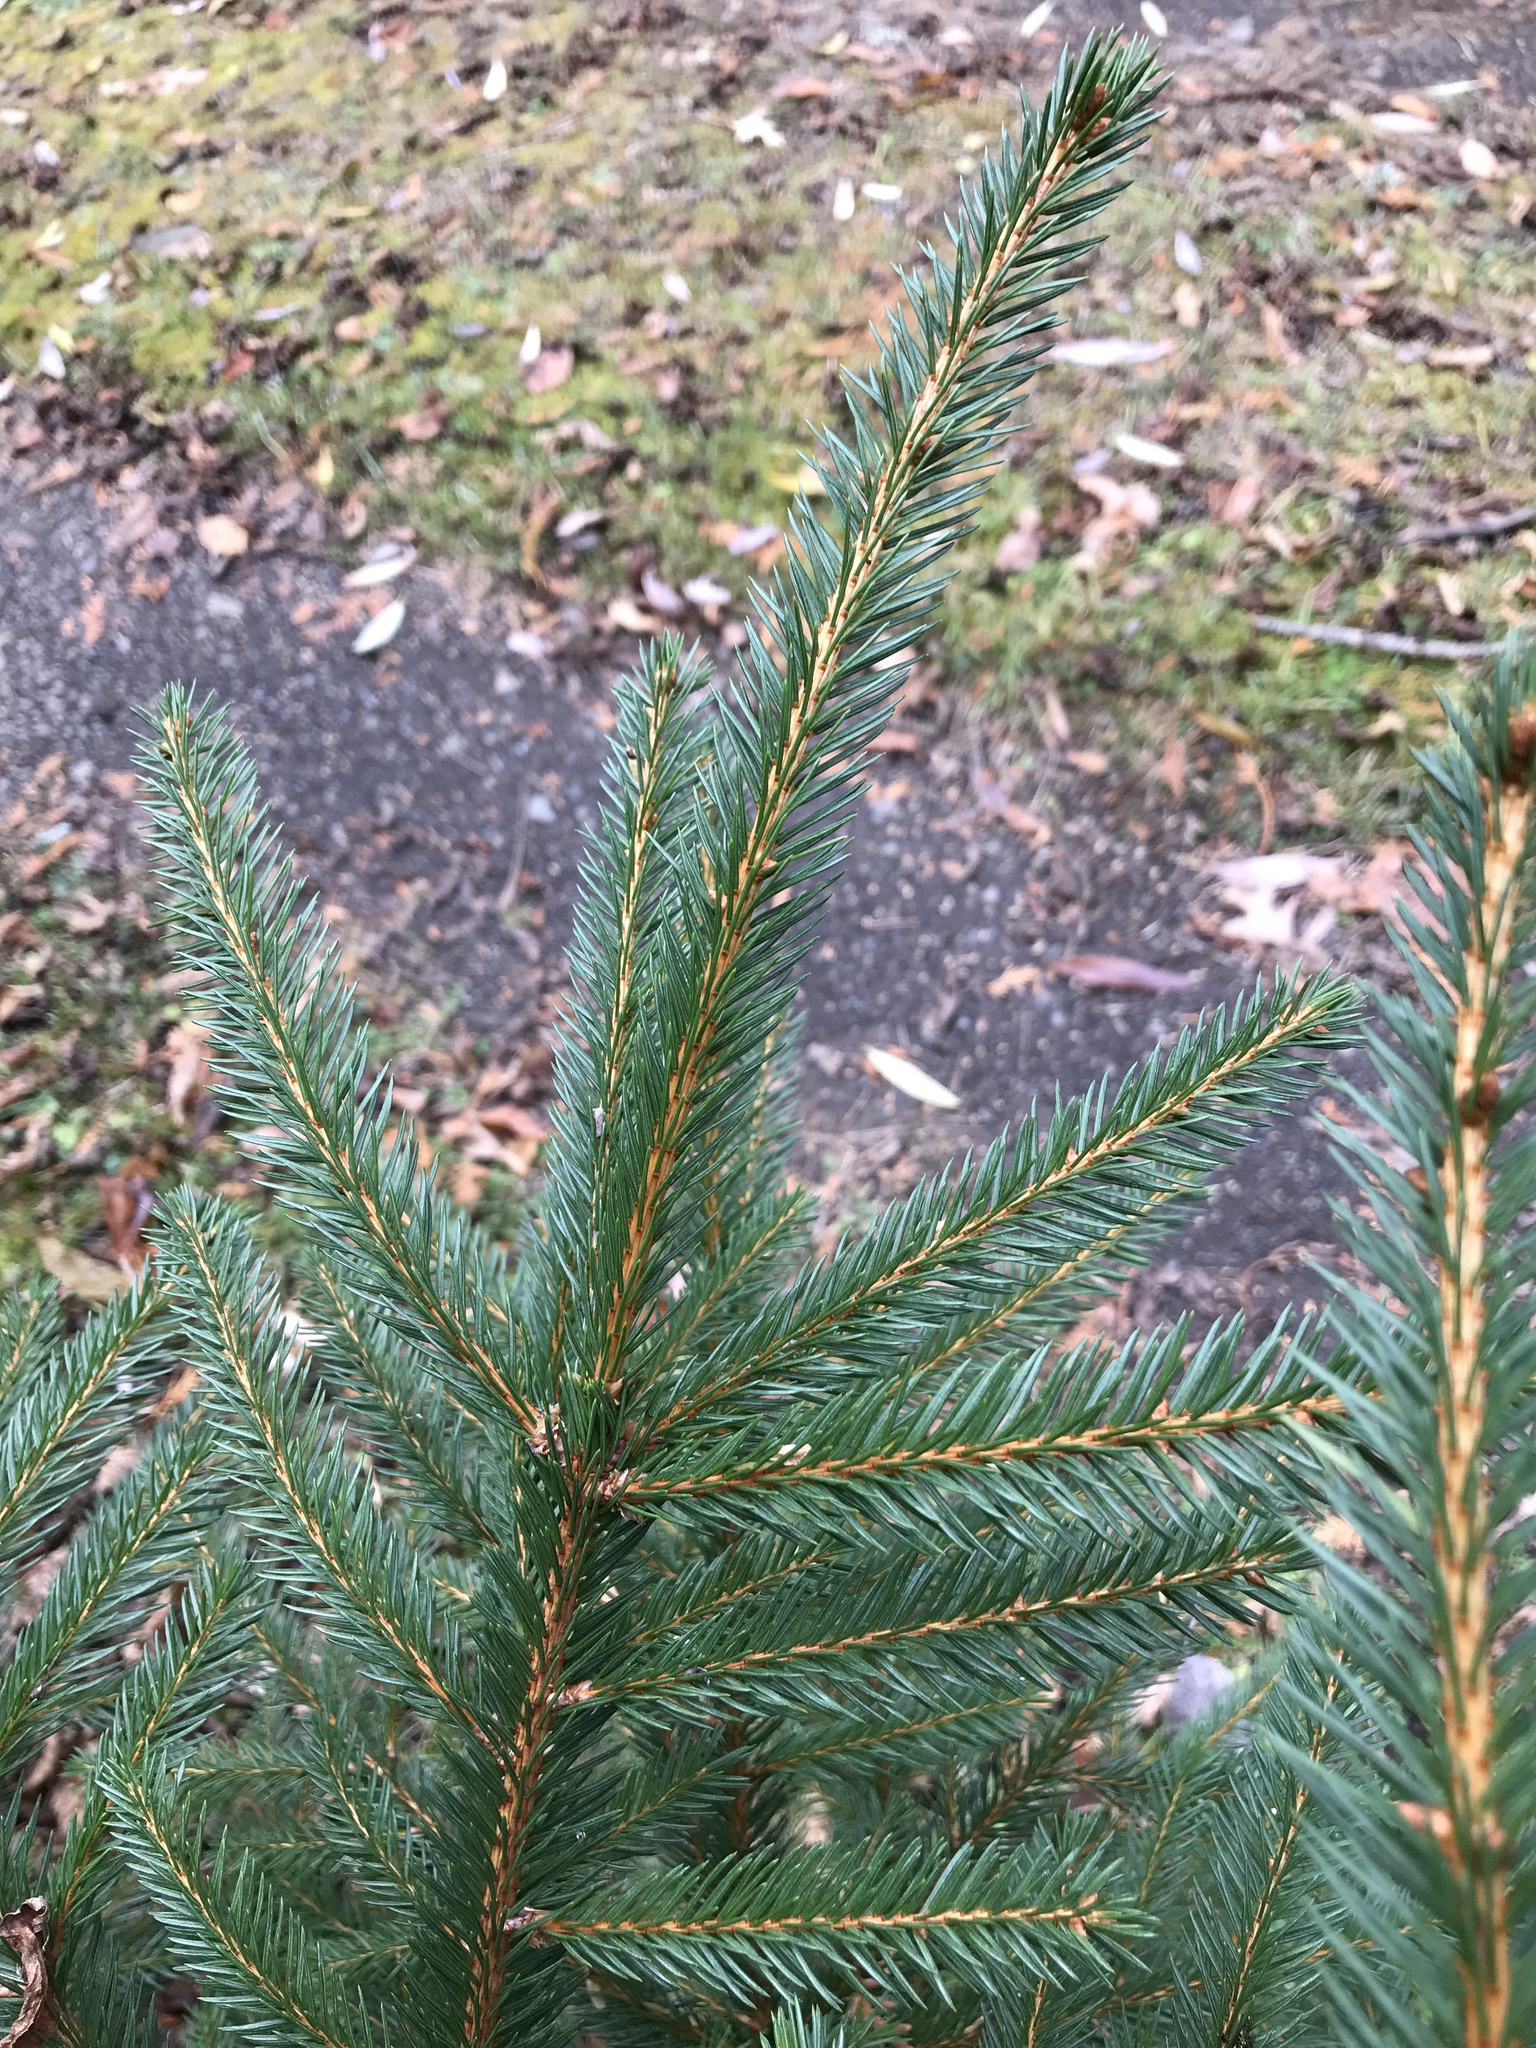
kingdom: Plantae
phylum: Tracheophyta
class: Pinopsida
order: Pinales
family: Pinaceae
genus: Picea
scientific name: Picea abies
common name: Norway spruce
